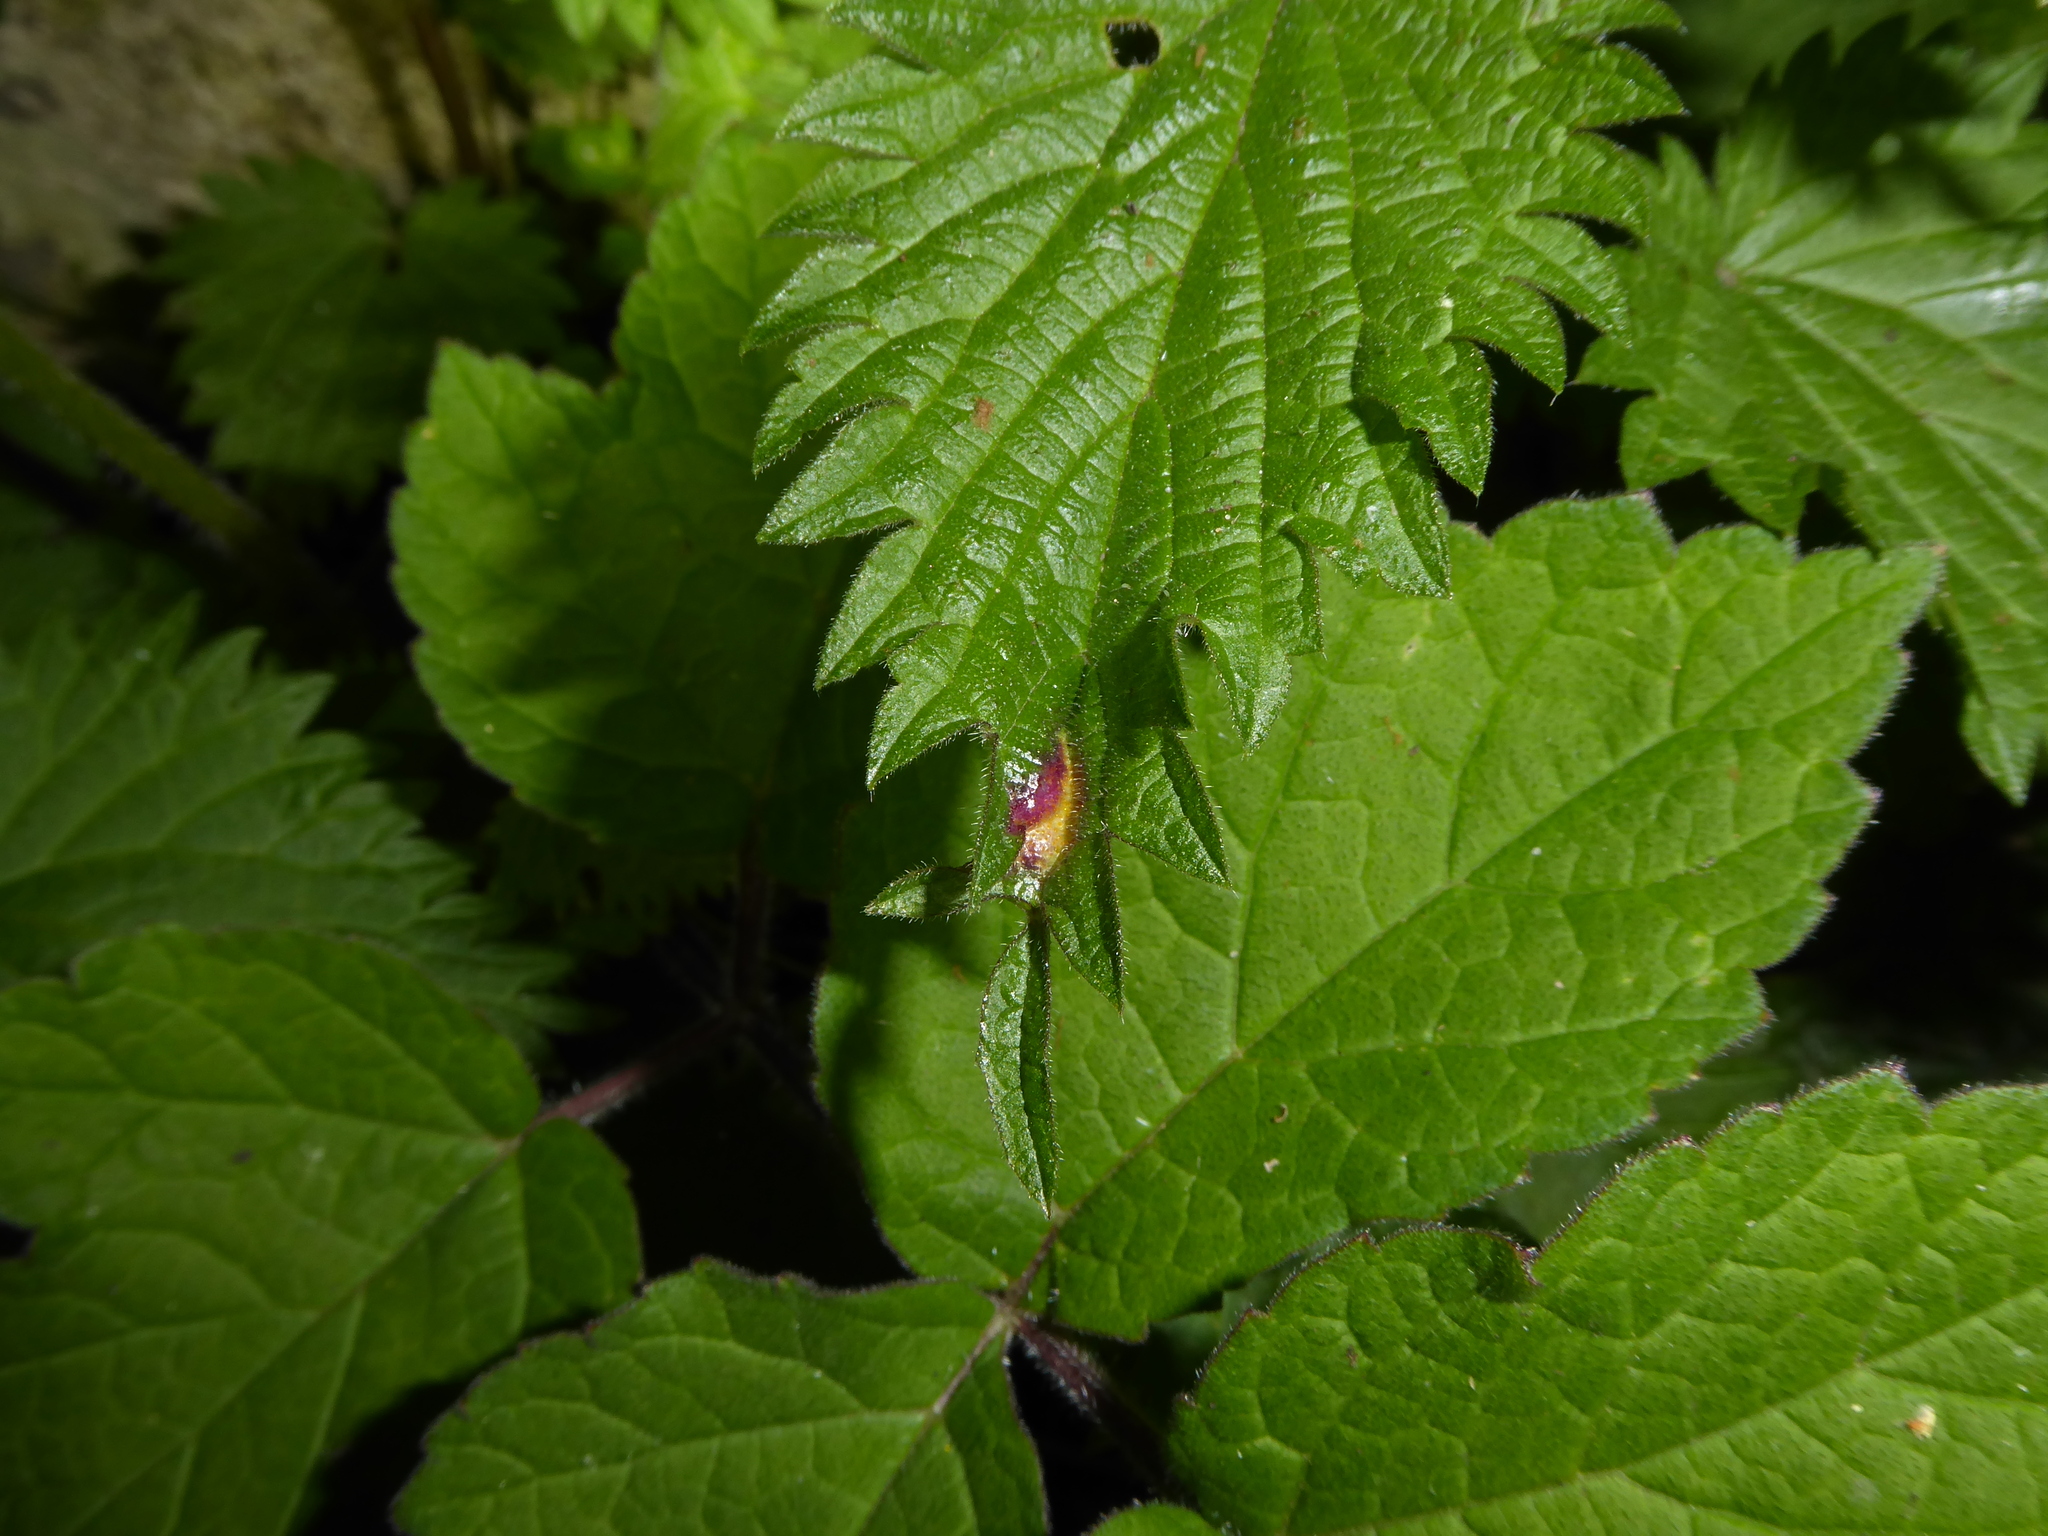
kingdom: Fungi
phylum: Basidiomycota
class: Pucciniomycetes
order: Pucciniales
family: Pucciniaceae
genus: Puccinia
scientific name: Puccinia urticata
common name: Nettle clustercup rust fungus
